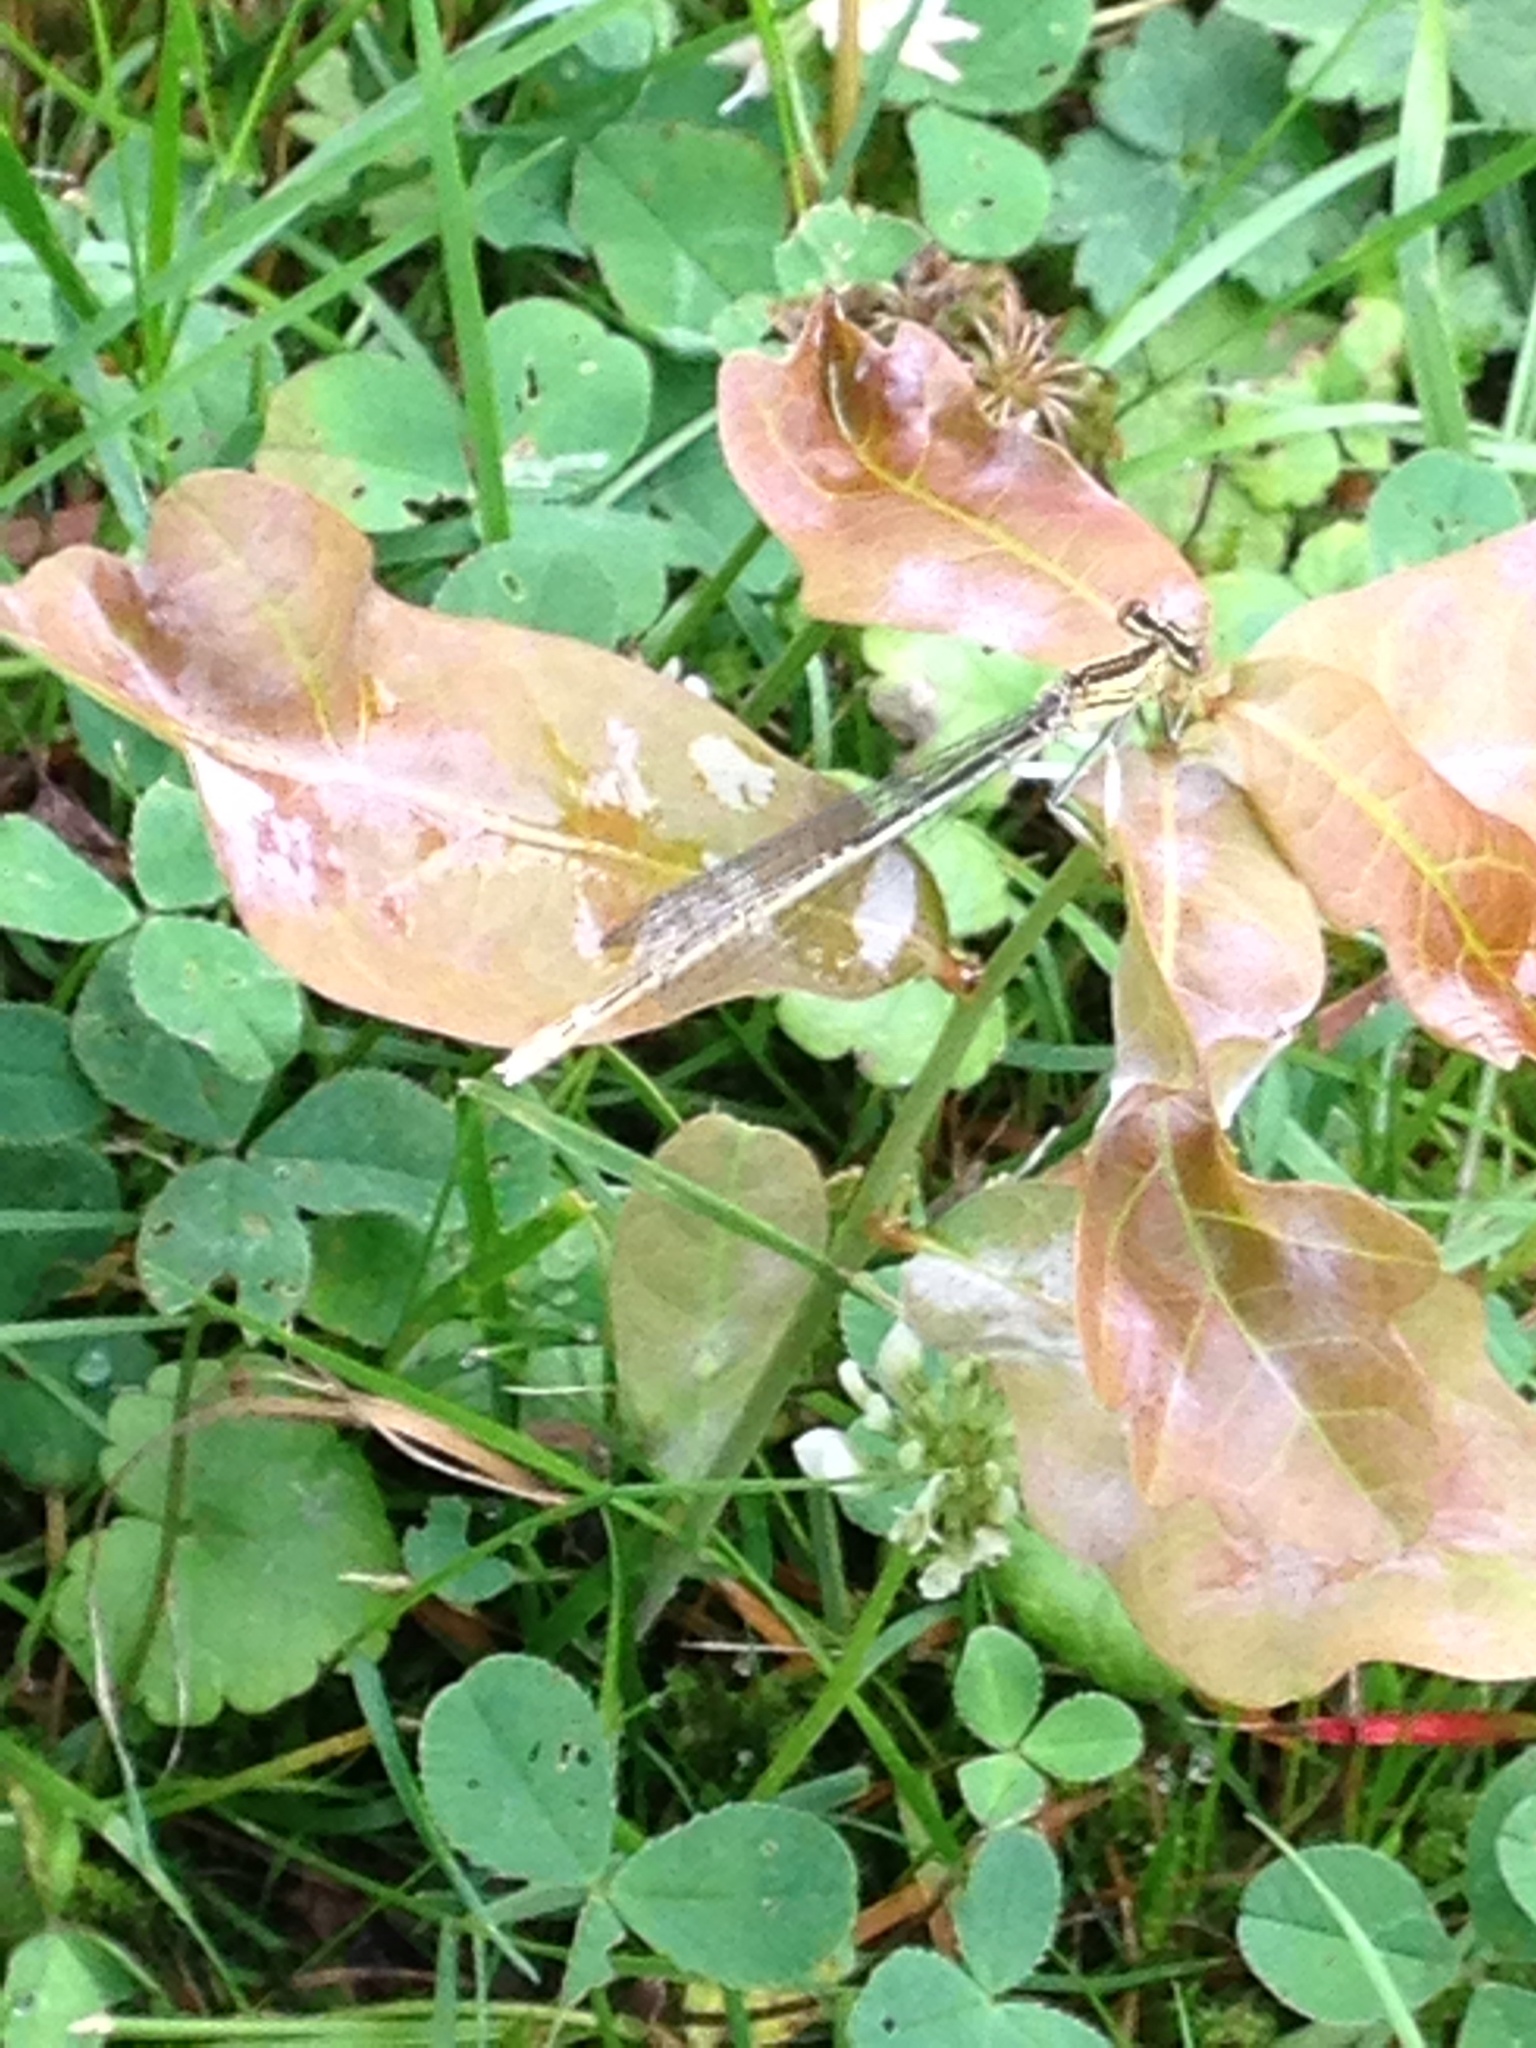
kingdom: Animalia
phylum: Arthropoda
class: Insecta
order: Odonata
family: Platycnemididae
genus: Platycnemis
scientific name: Platycnemis pennipes
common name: White-legged damselfly
